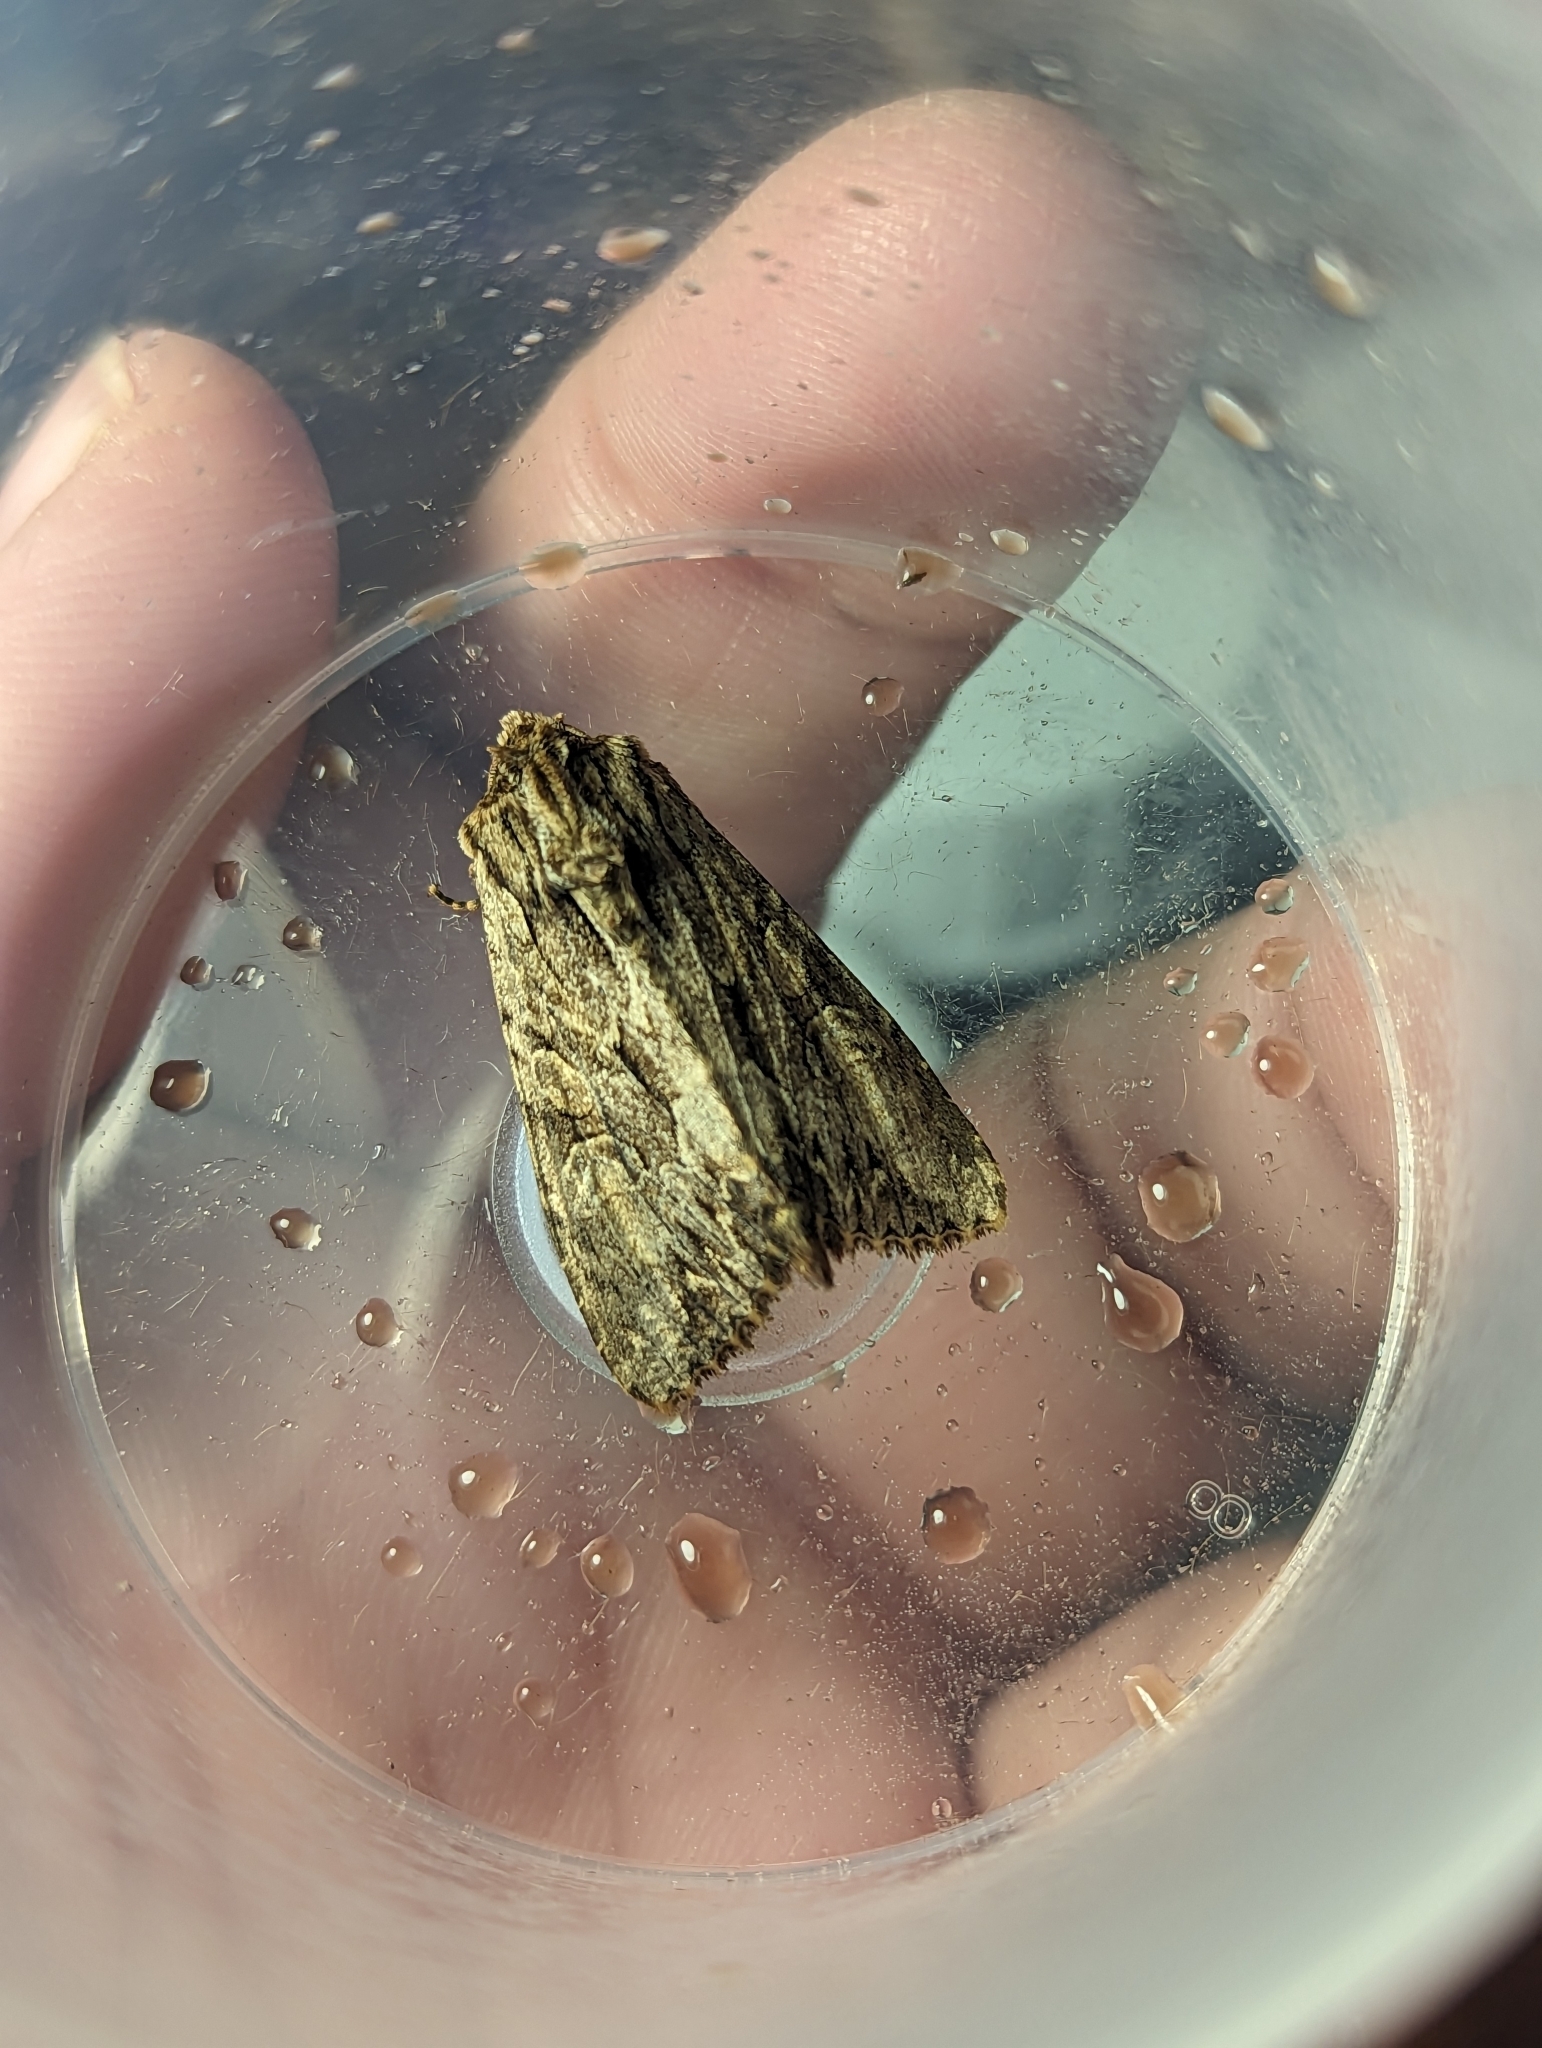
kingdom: Animalia
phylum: Arthropoda
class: Insecta
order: Lepidoptera
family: Noctuidae
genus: Apamea
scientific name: Apamea monoglypha
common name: Dark arches
